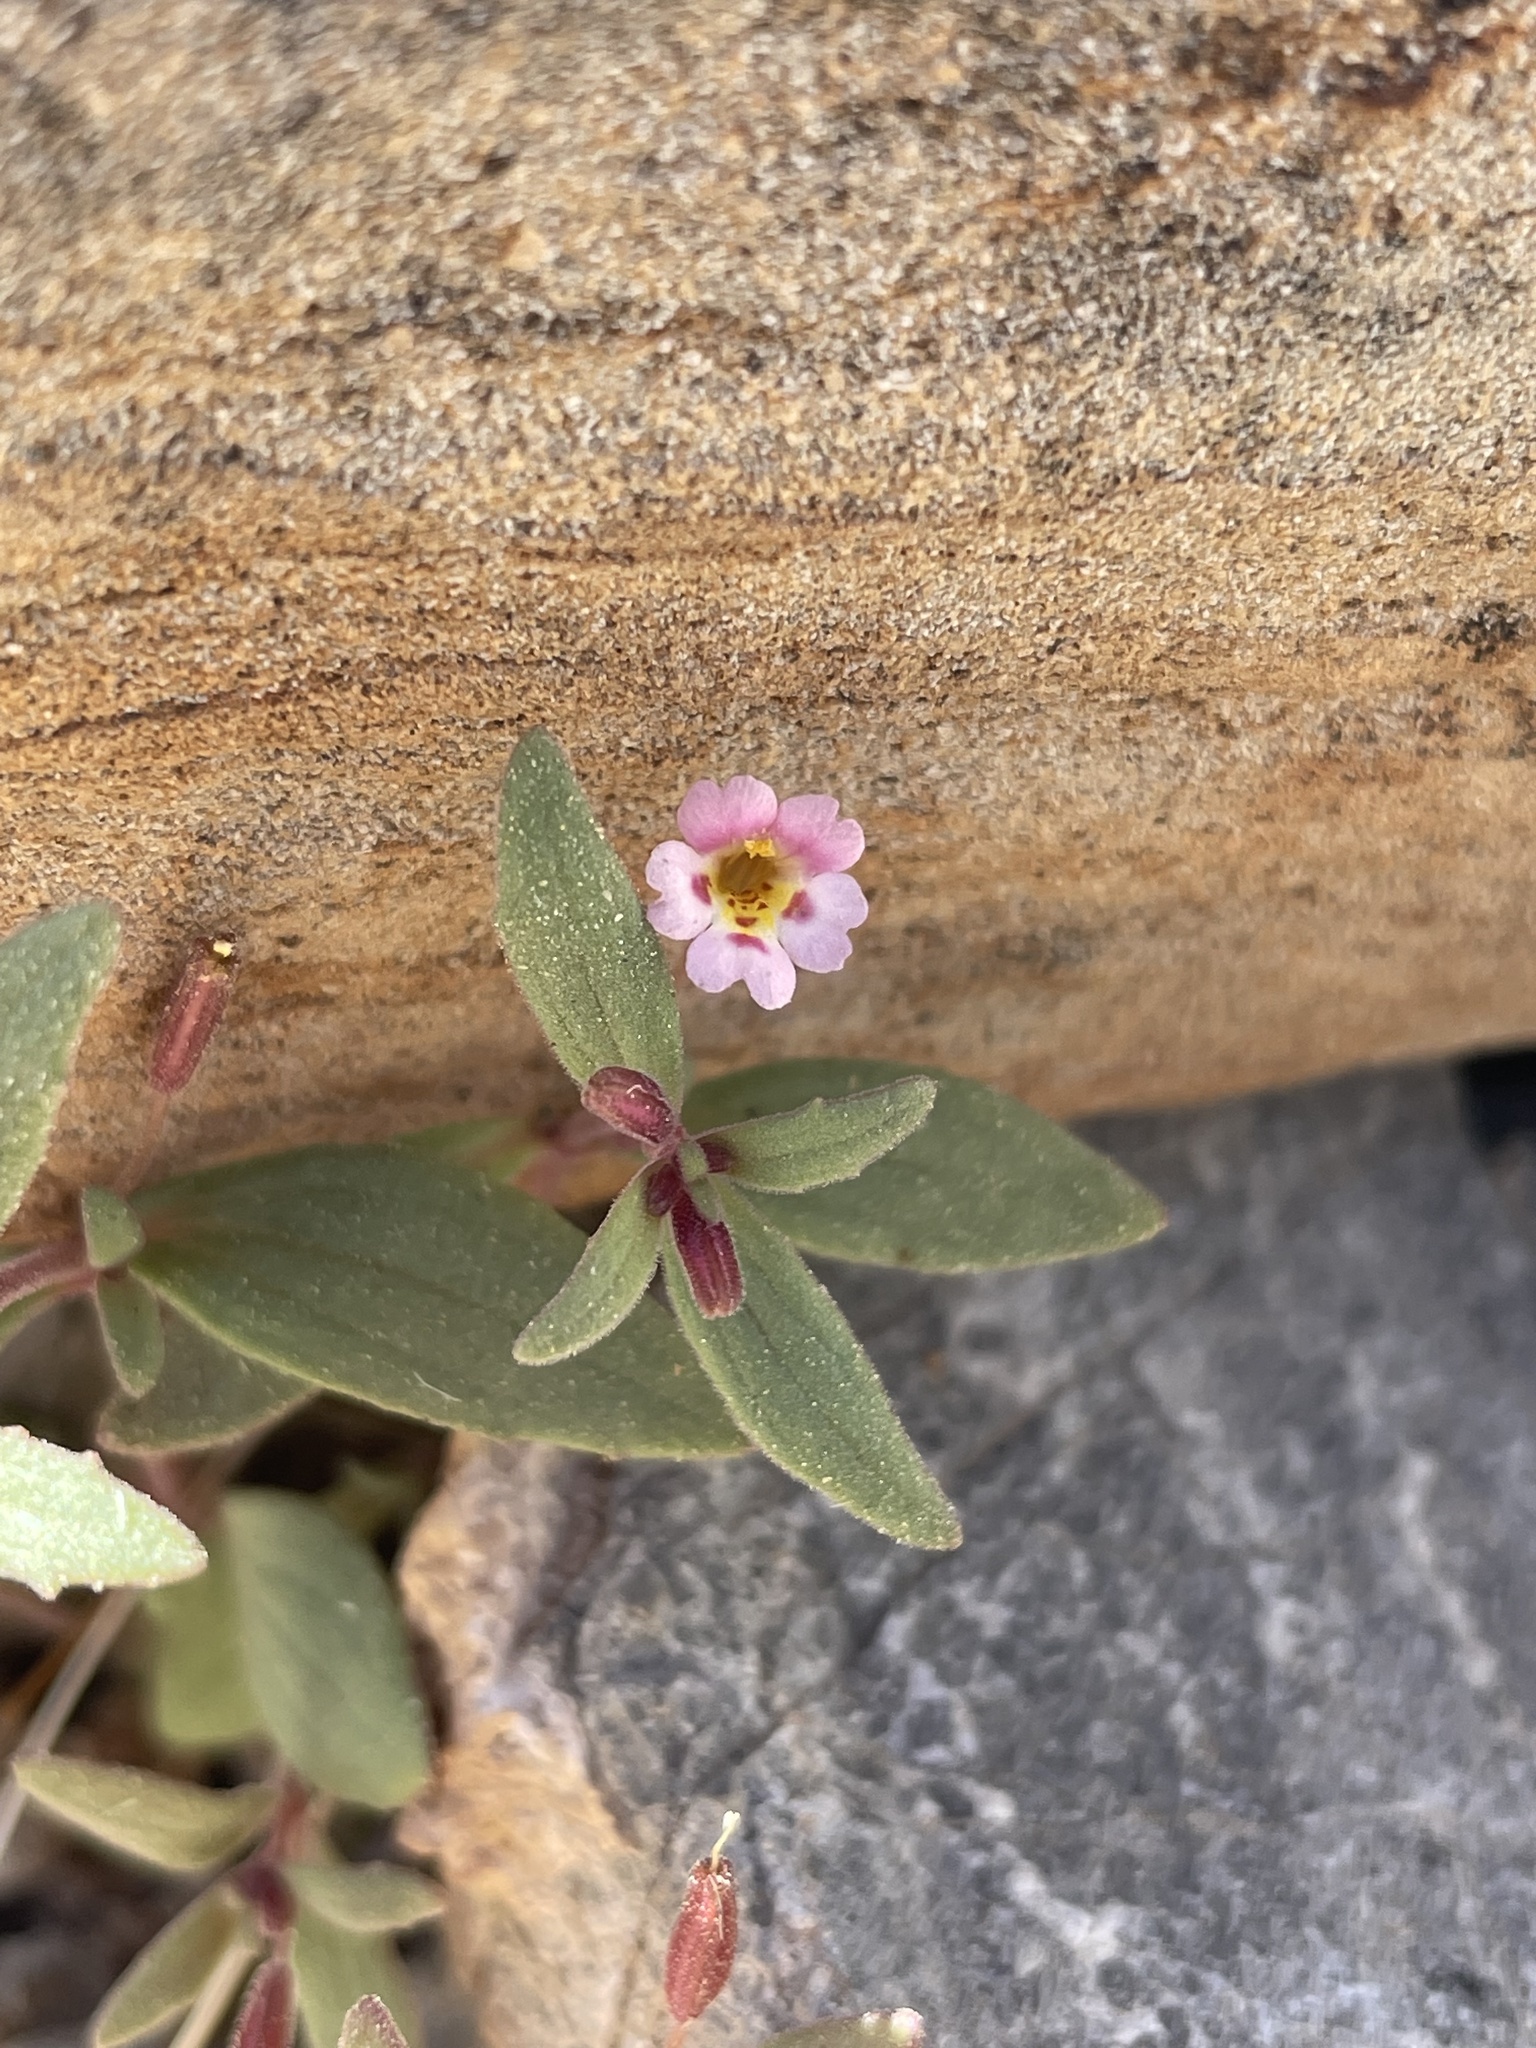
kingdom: Plantae
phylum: Tracheophyta
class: Magnoliopsida
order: Lamiales
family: Phrymaceae
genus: Erythranthe
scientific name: Erythranthe rubella
